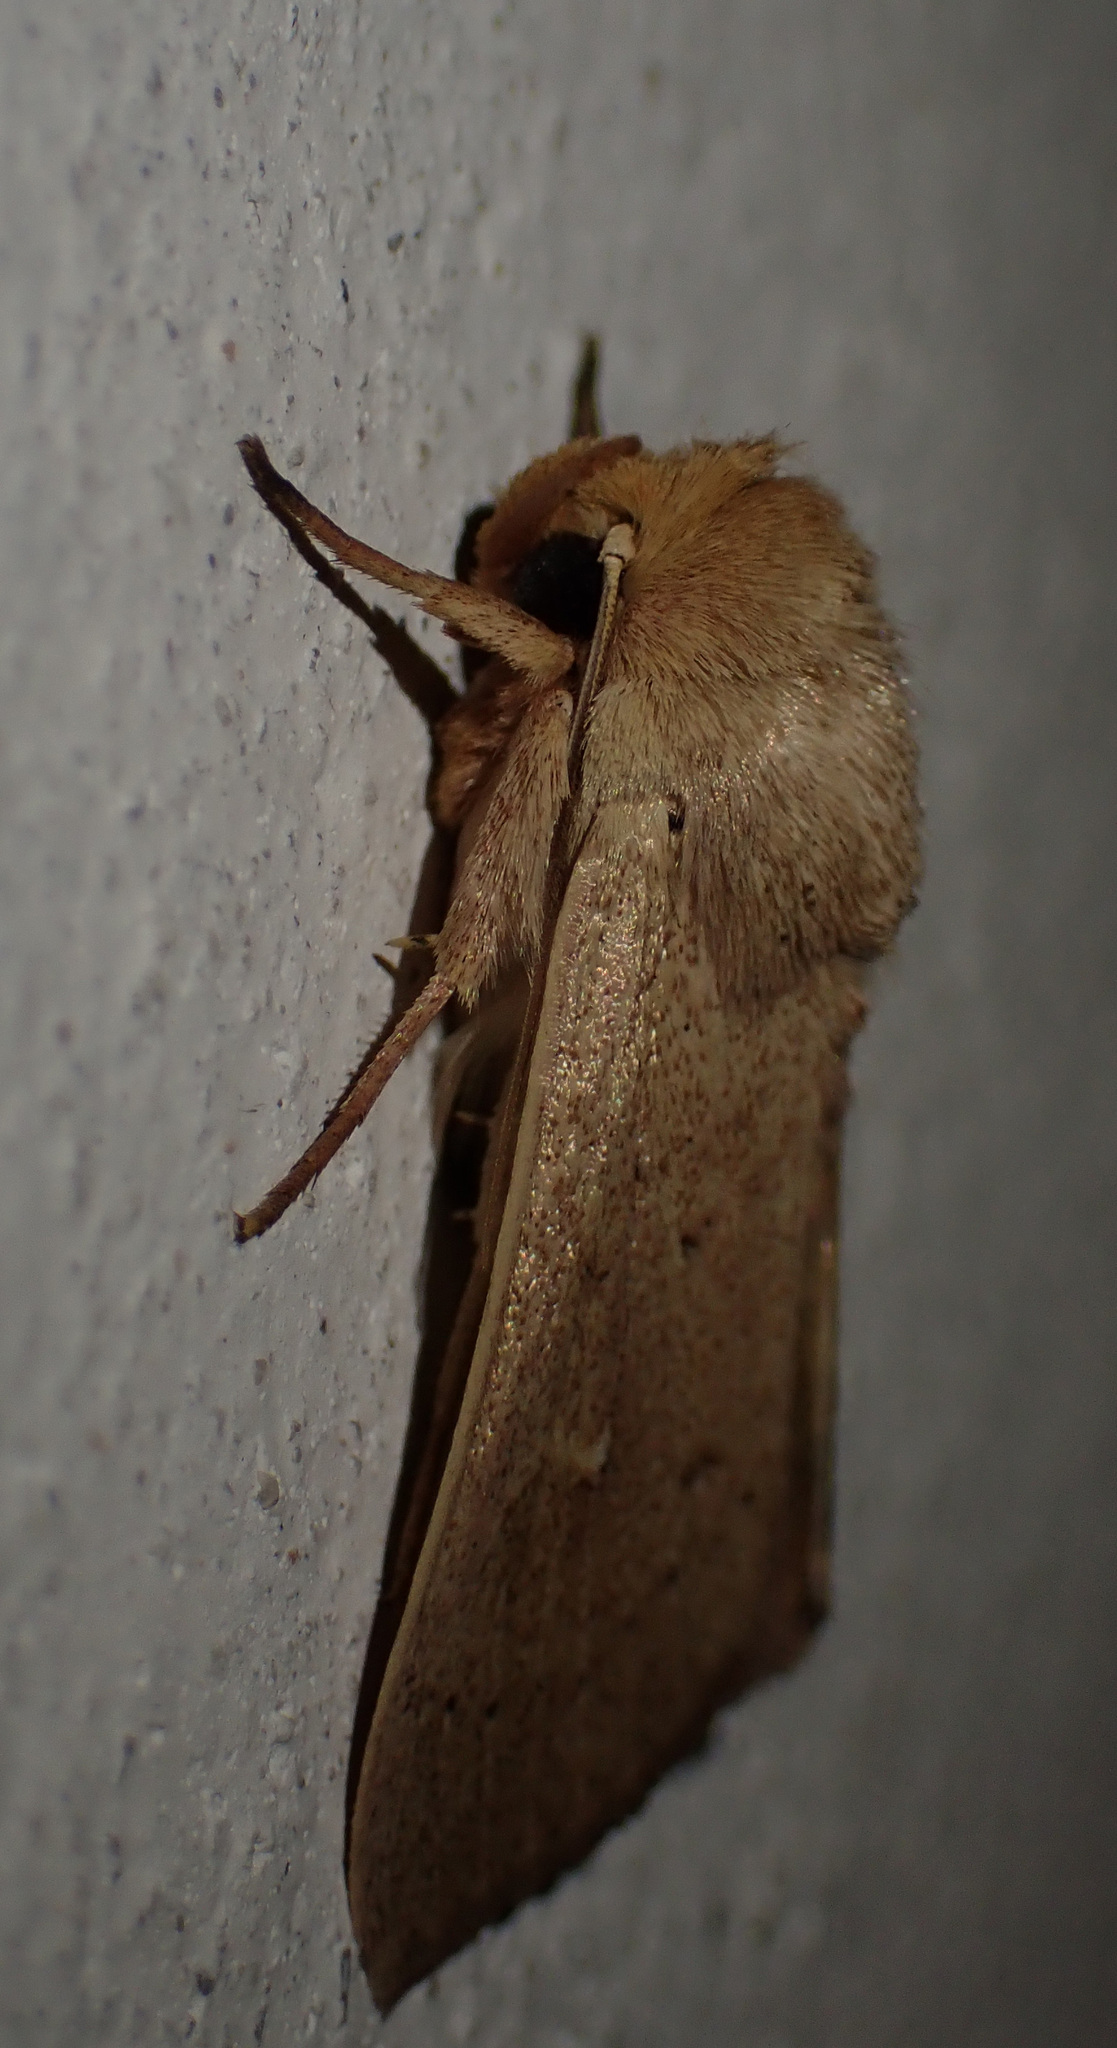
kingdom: Animalia
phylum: Arthropoda
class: Insecta
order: Lepidoptera
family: Noctuidae
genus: Mythimna
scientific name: Mythimna ferrago
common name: Clay
